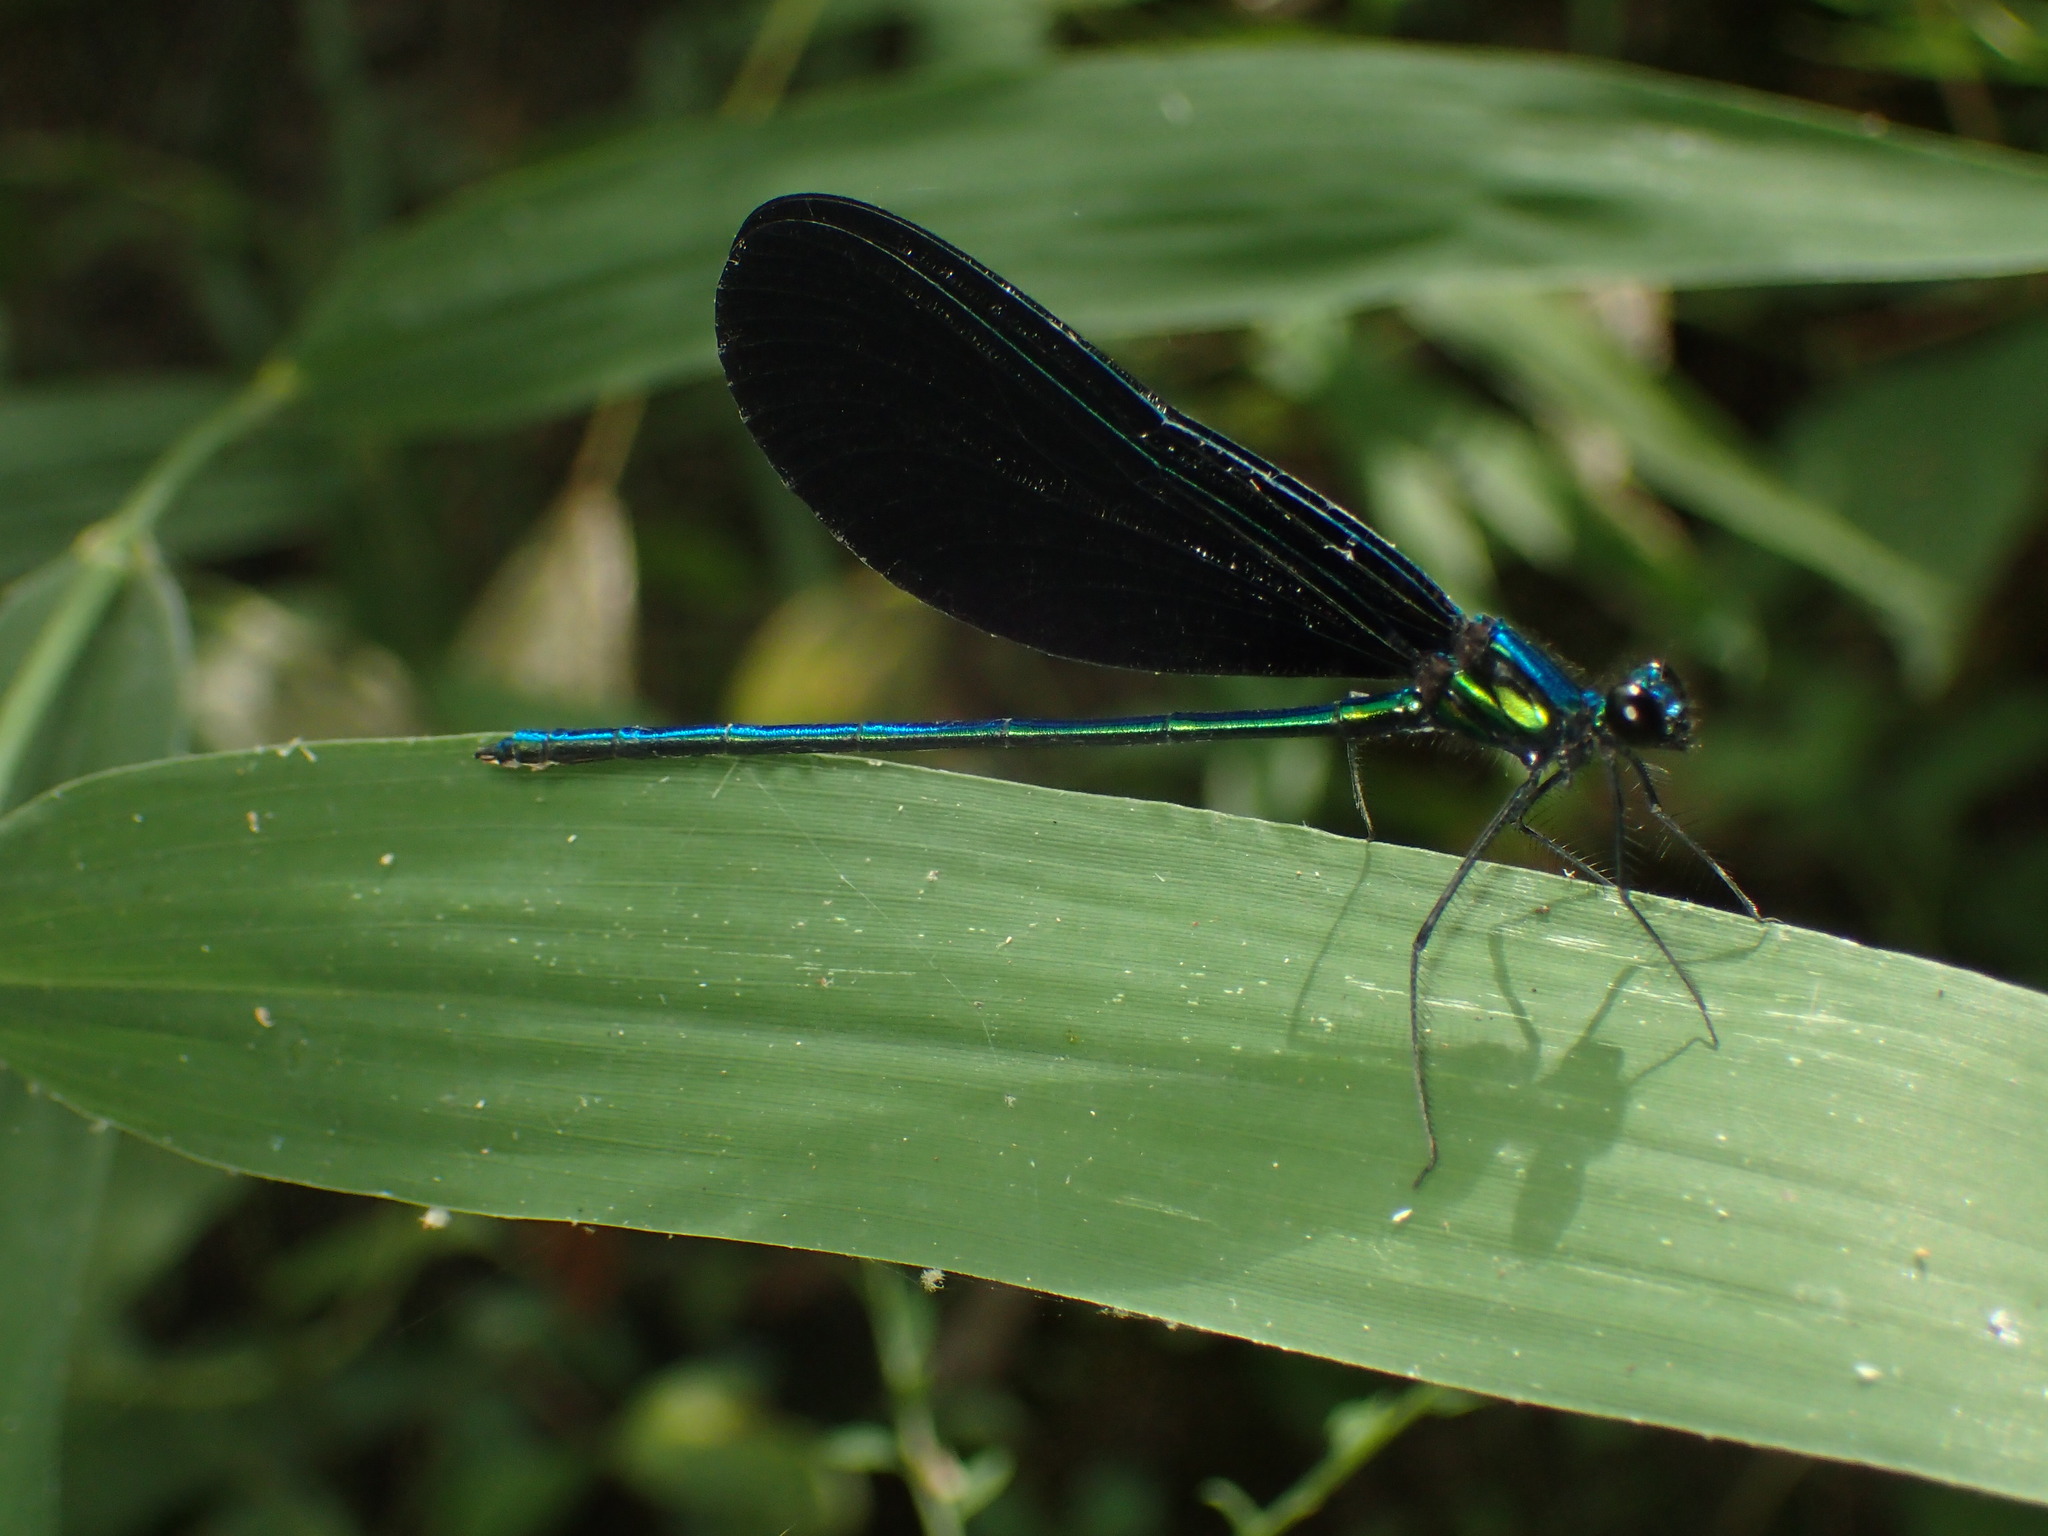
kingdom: Animalia
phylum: Arthropoda
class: Insecta
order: Odonata
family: Calopterygidae
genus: Calopteryx
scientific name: Calopteryx maculata
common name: Ebony jewelwing
